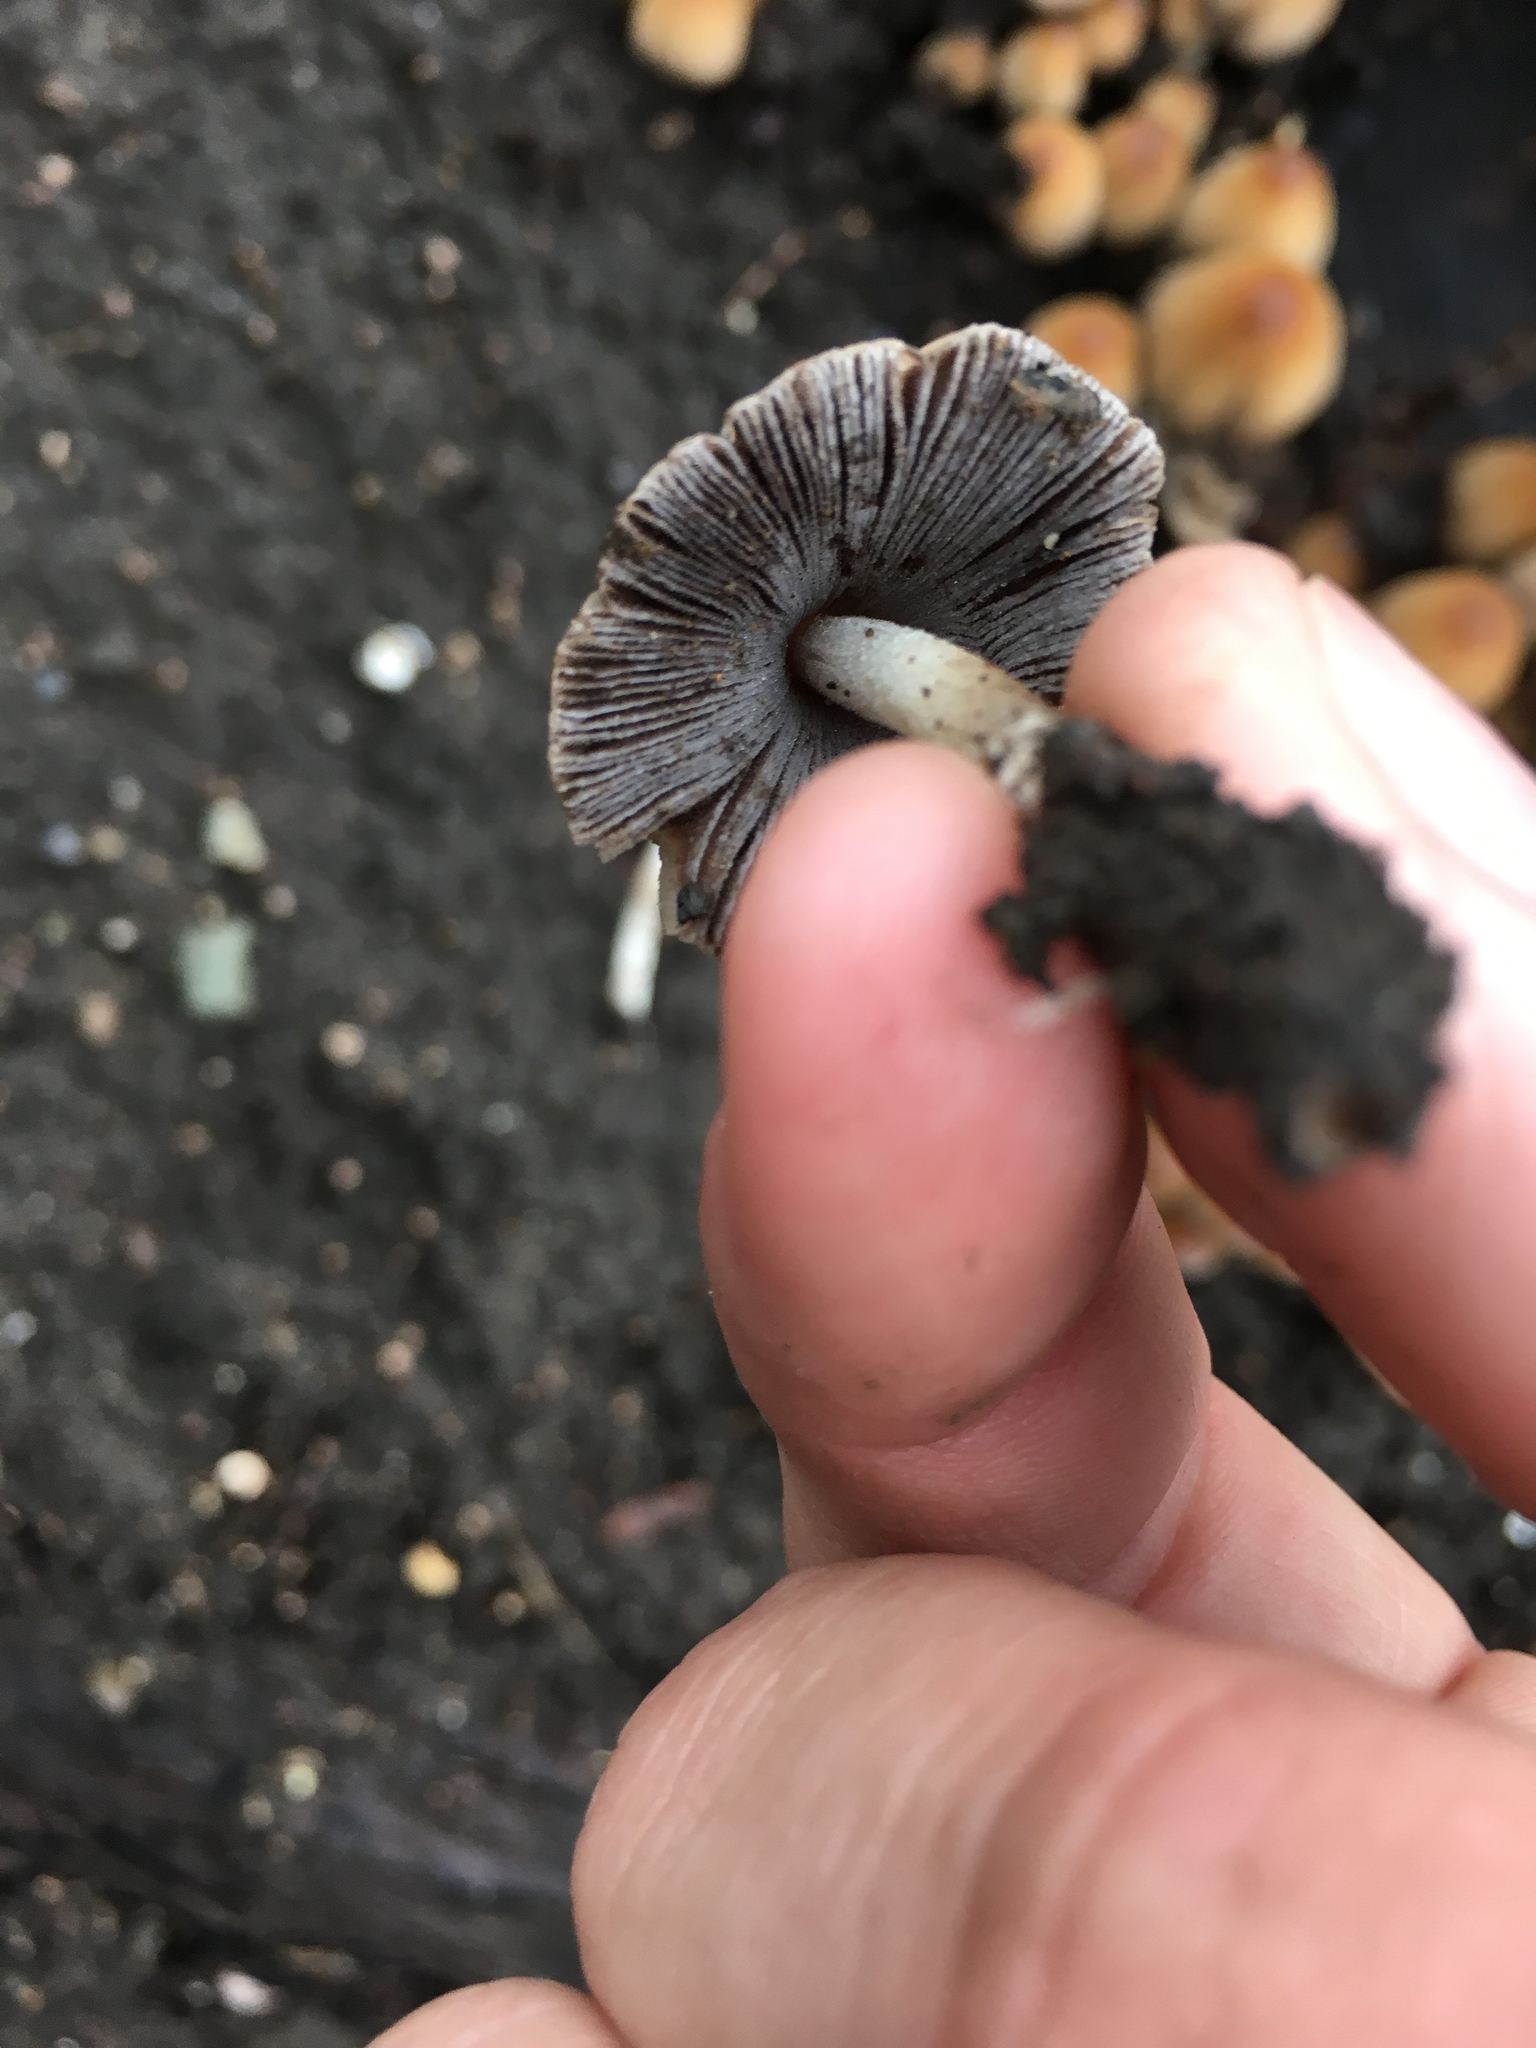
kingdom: Fungi
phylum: Basidiomycota
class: Agaricomycetes
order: Agaricales
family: Psathyrellaceae
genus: Coprinellus
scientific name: Coprinellus micaceus
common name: Glistening ink-cap
